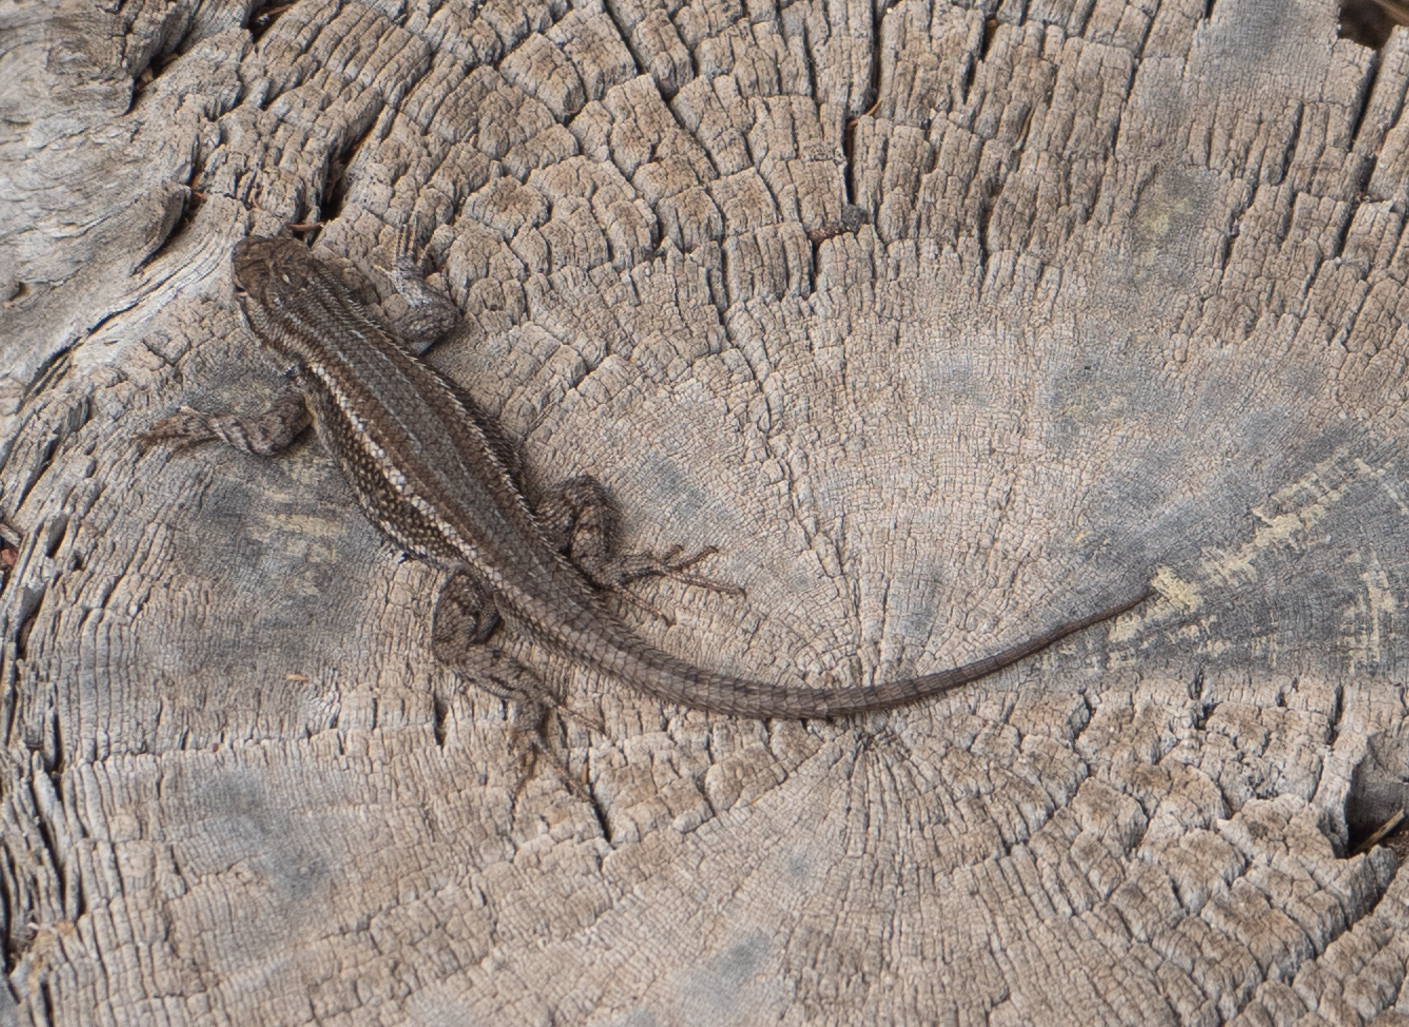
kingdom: Animalia
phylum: Chordata
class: Squamata
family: Phrynosomatidae
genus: Sceloporus
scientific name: Sceloporus tristichus
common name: Plateau fence lizard
